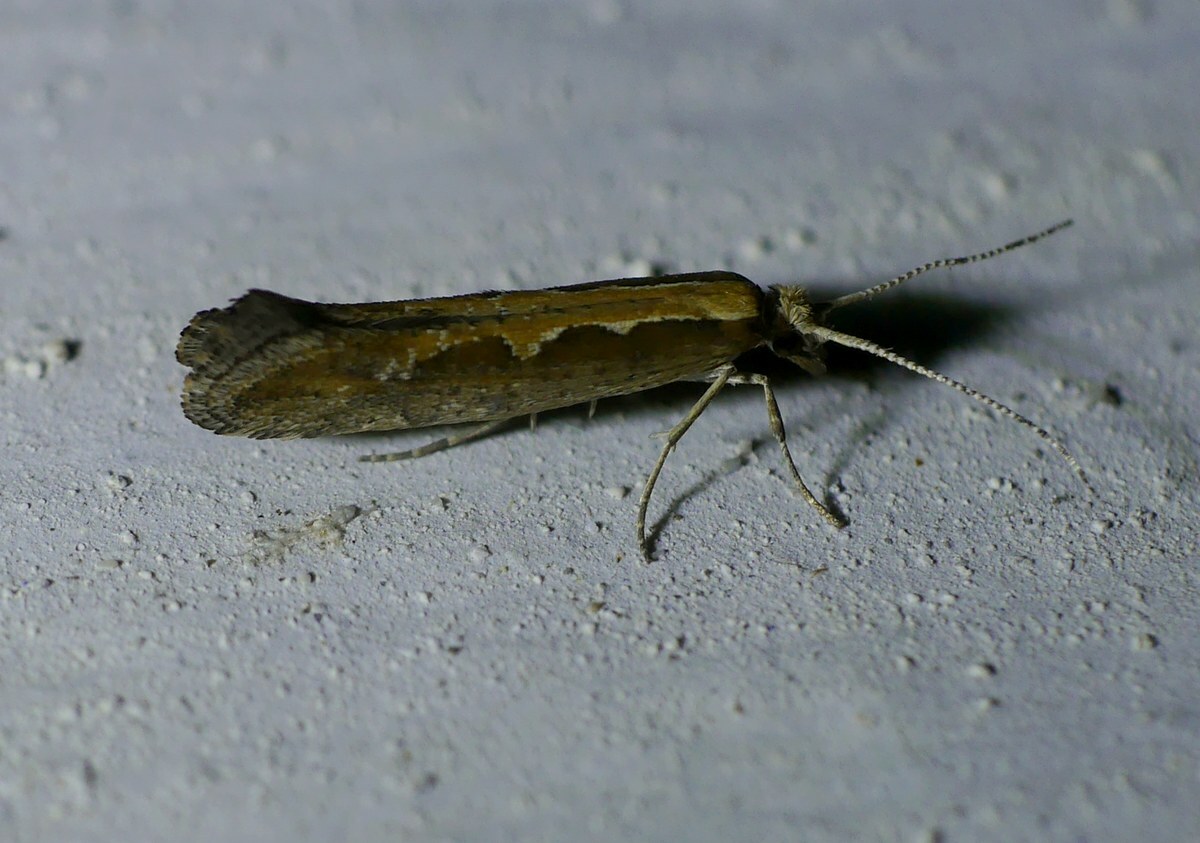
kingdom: Animalia
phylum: Arthropoda
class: Insecta
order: Lepidoptera
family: Plutellidae
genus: Plutella
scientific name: Plutella xylostella
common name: Diamond-back moth
